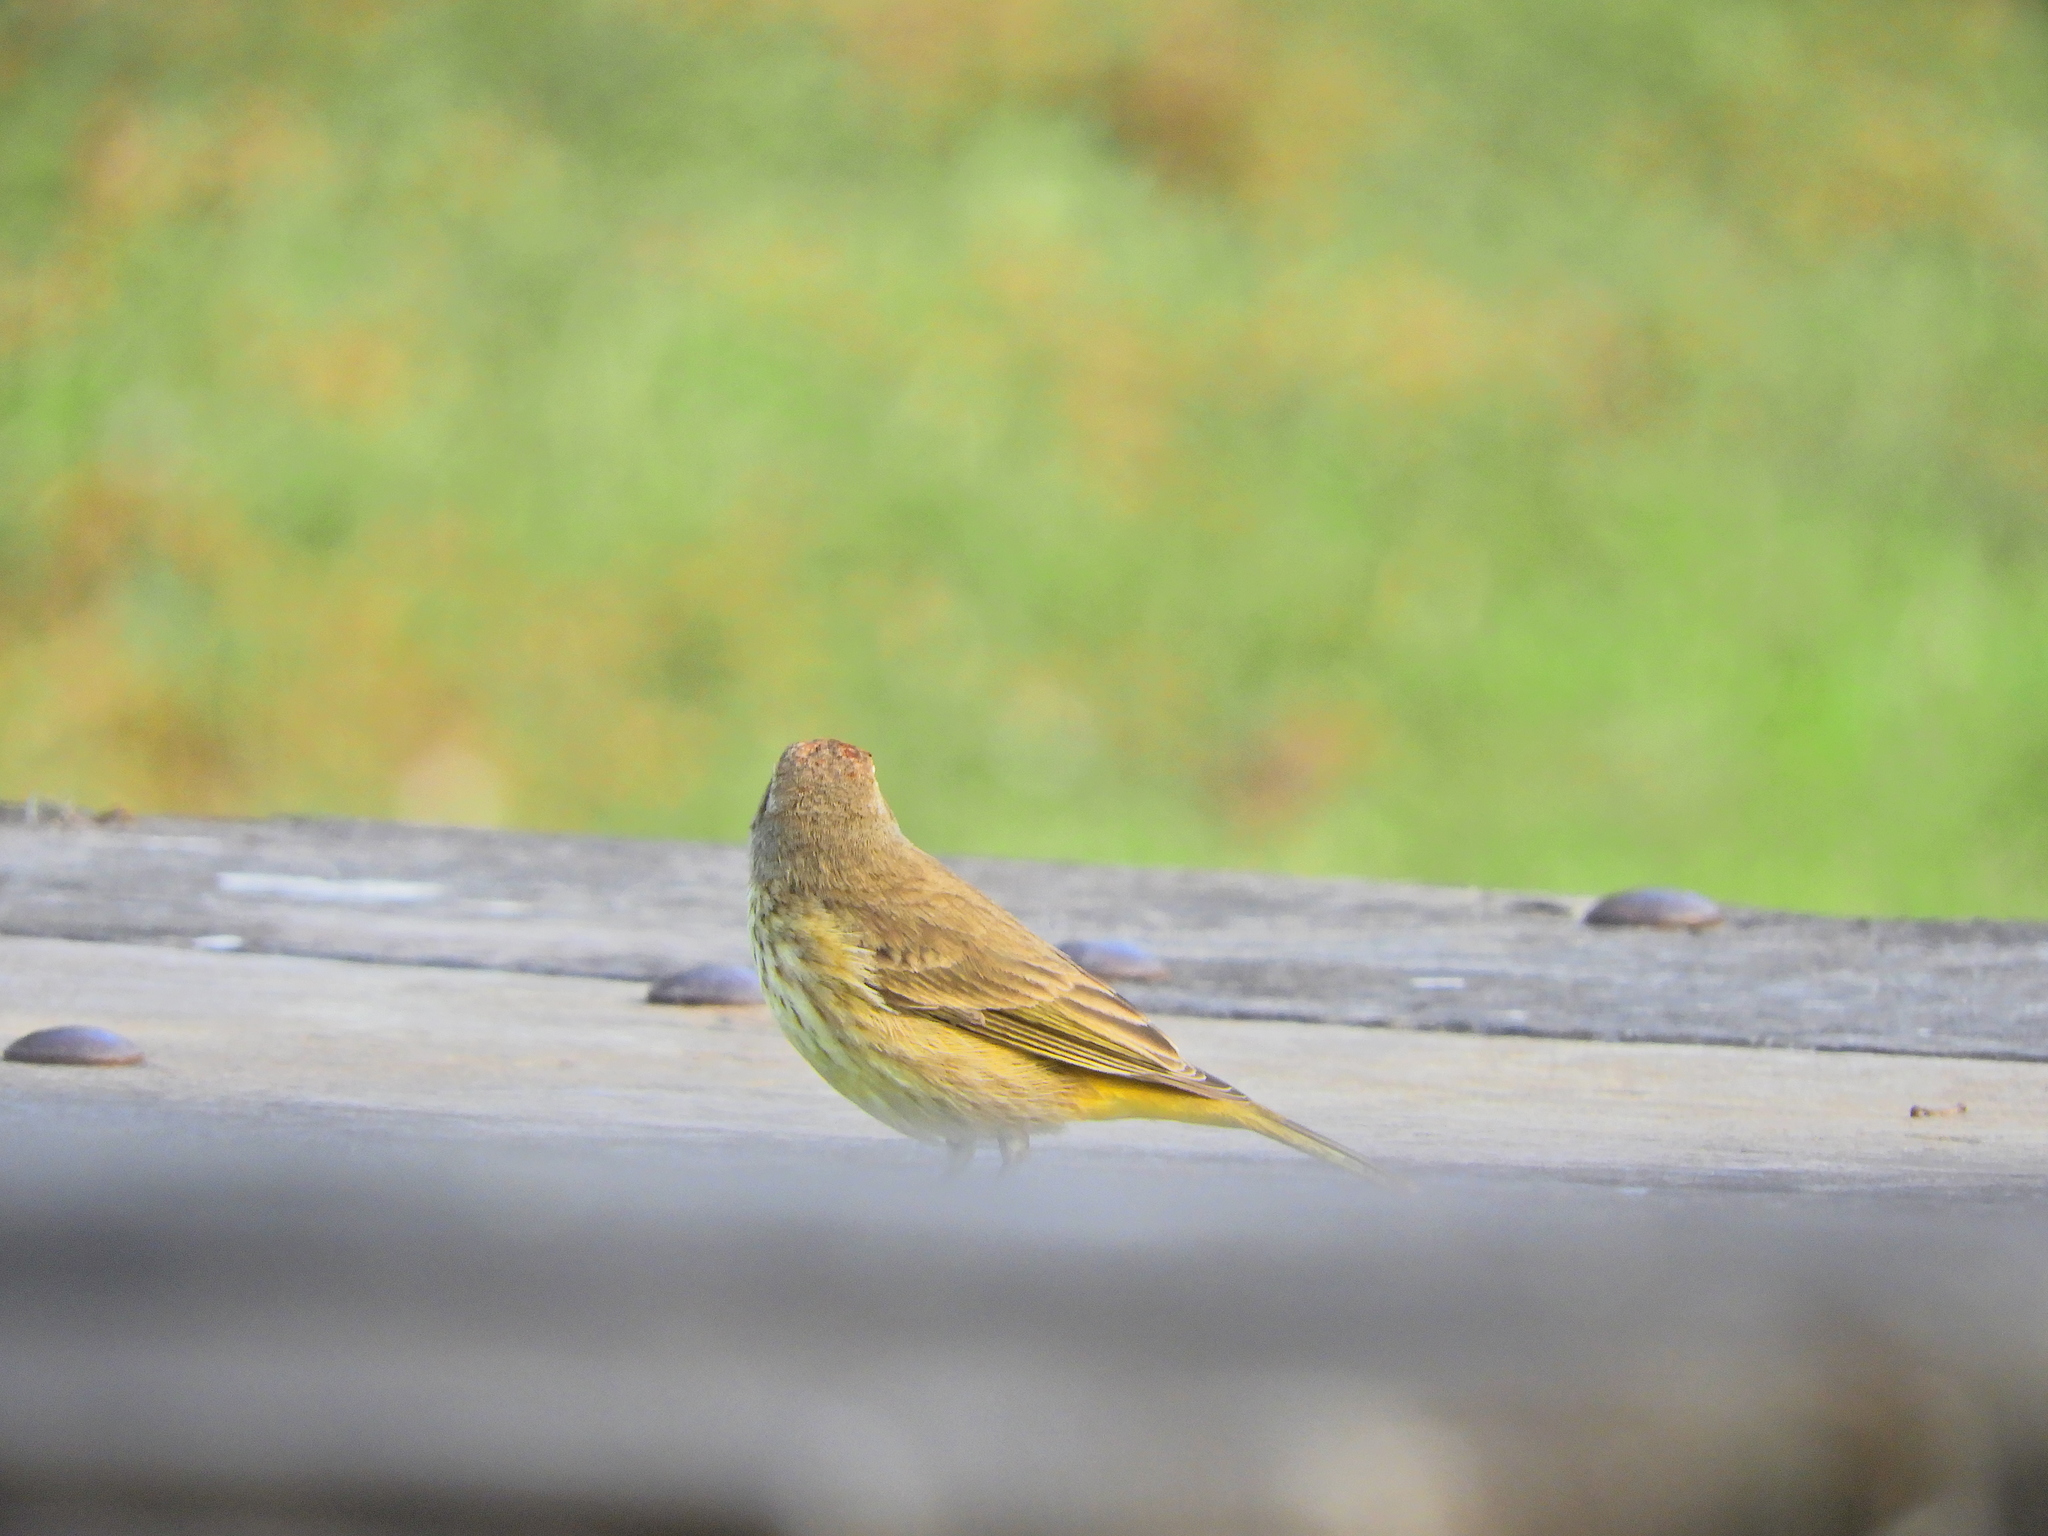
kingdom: Animalia
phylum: Chordata
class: Aves
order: Passeriformes
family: Parulidae
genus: Setophaga
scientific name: Setophaga palmarum
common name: Palm warbler
